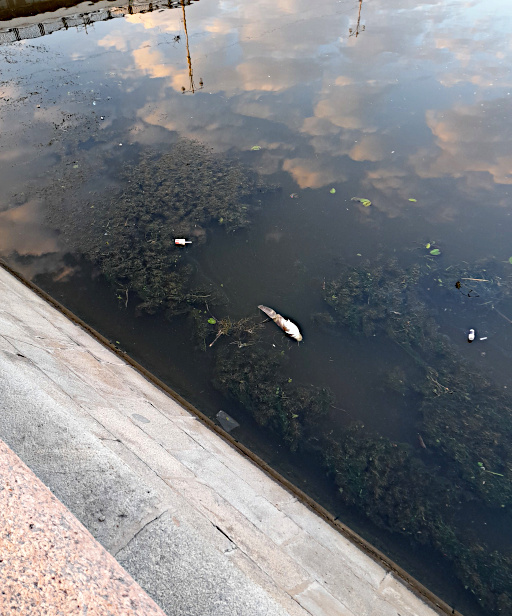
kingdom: Animalia
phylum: Chordata
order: Siluriformes
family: Siluridae
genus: Silurus
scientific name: Silurus glanis
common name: Wels
